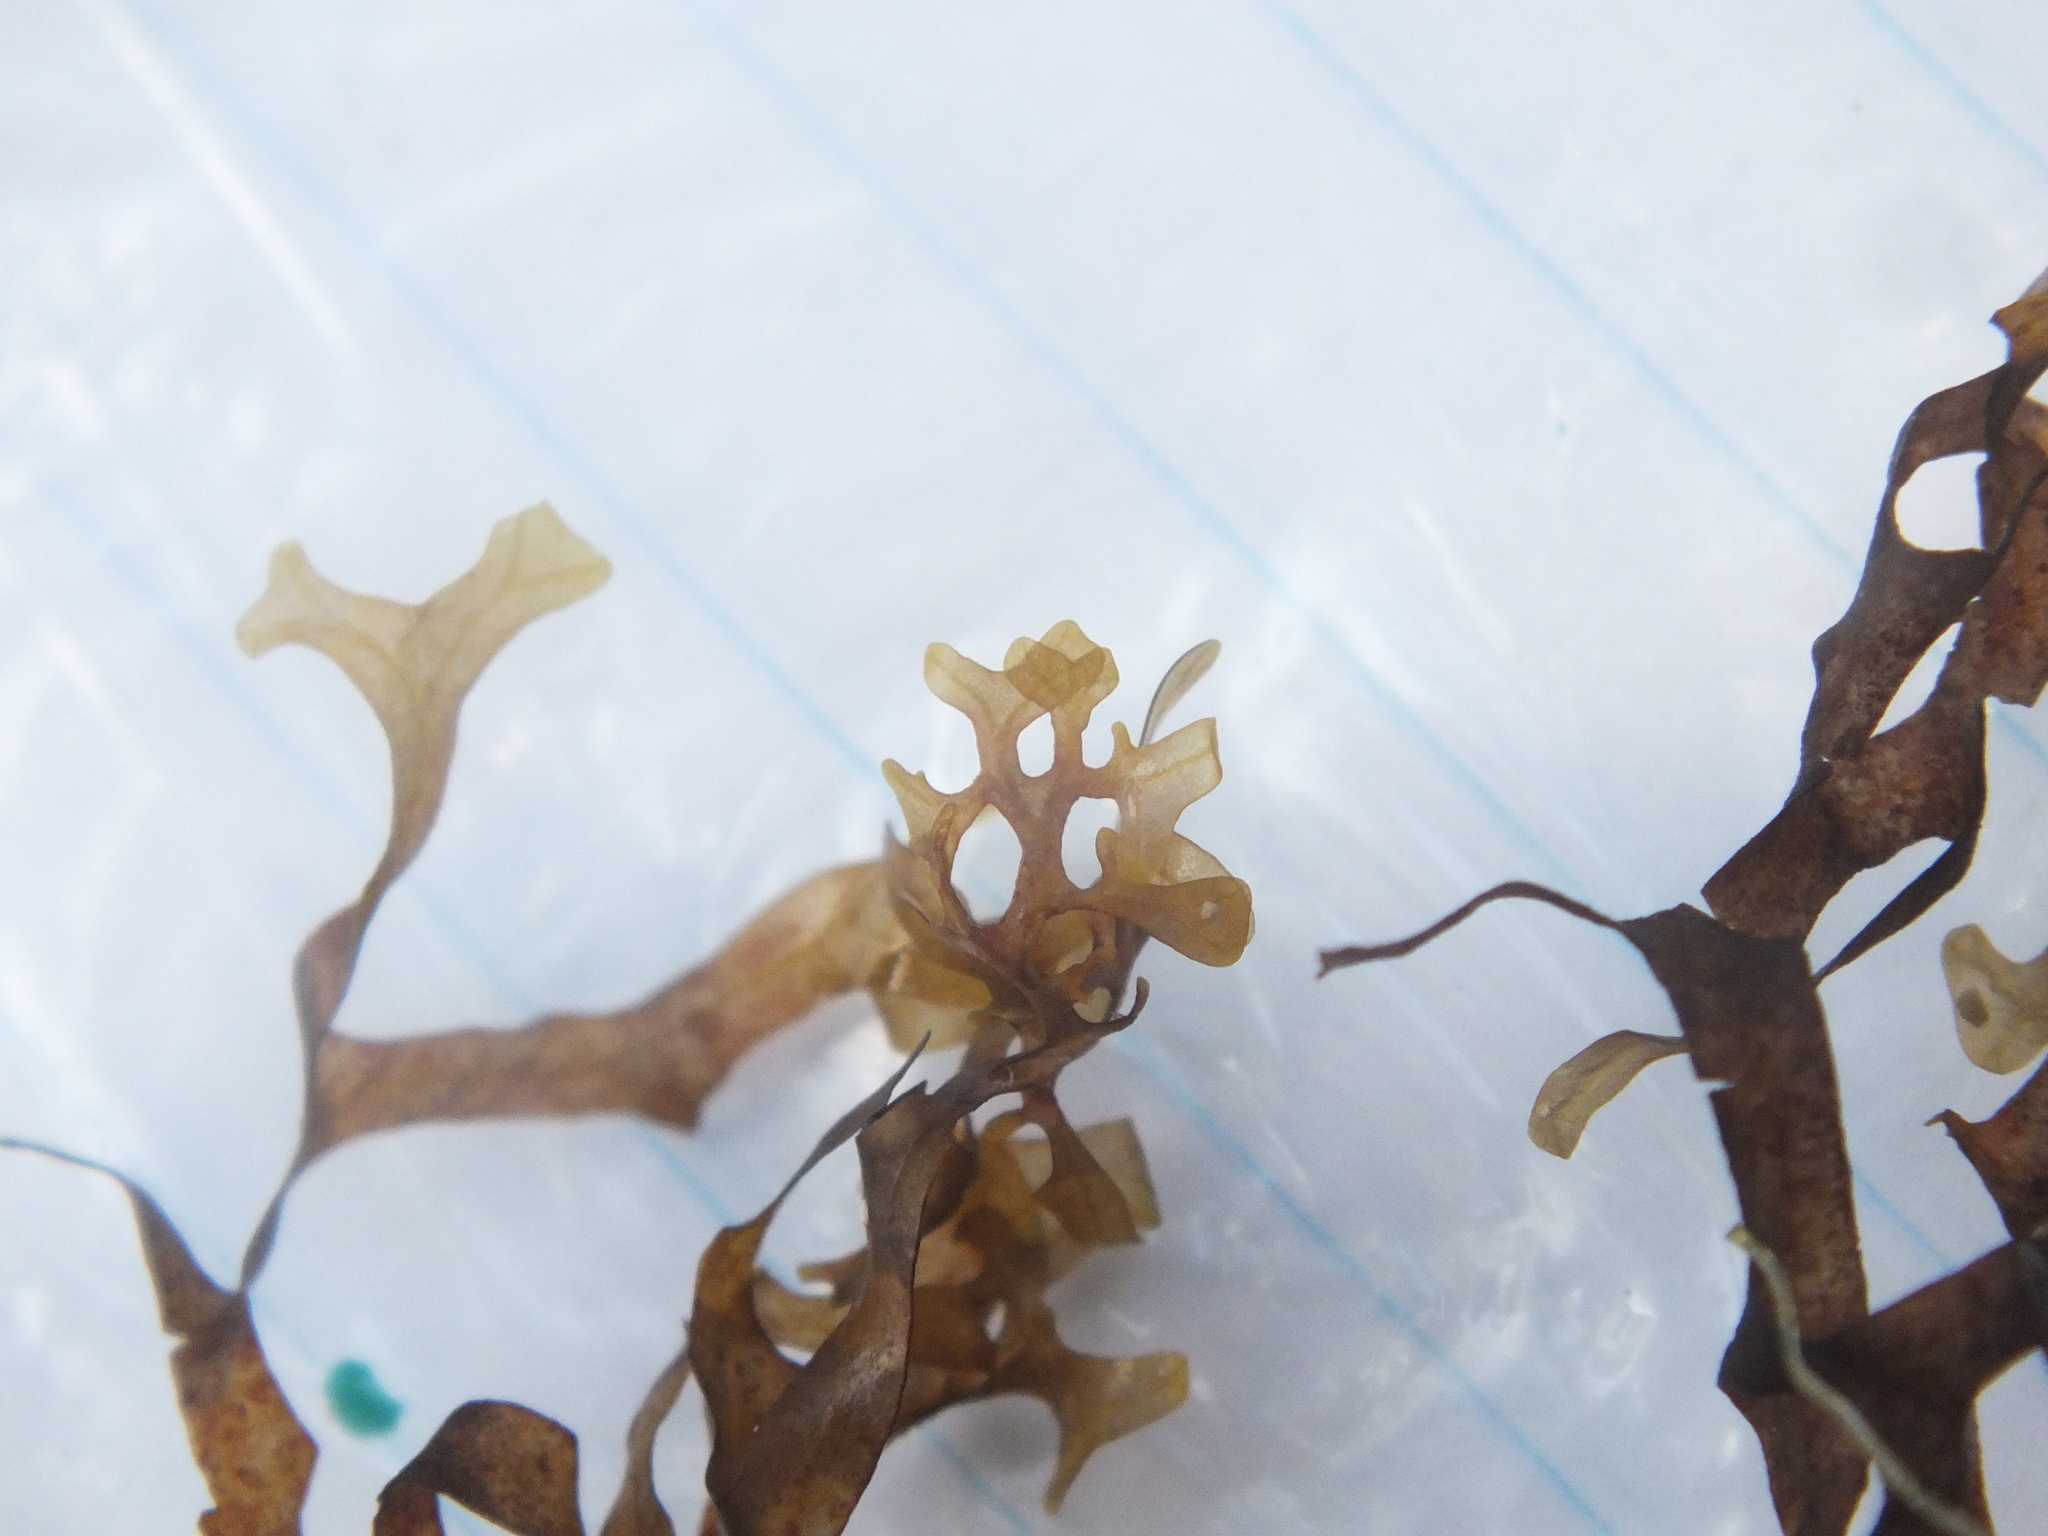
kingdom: Chromista
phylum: Ochrophyta
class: Phaeophyceae
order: Dictyotales
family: Dictyotaceae
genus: Dictyopteris
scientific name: Dictyopteris delicatula
